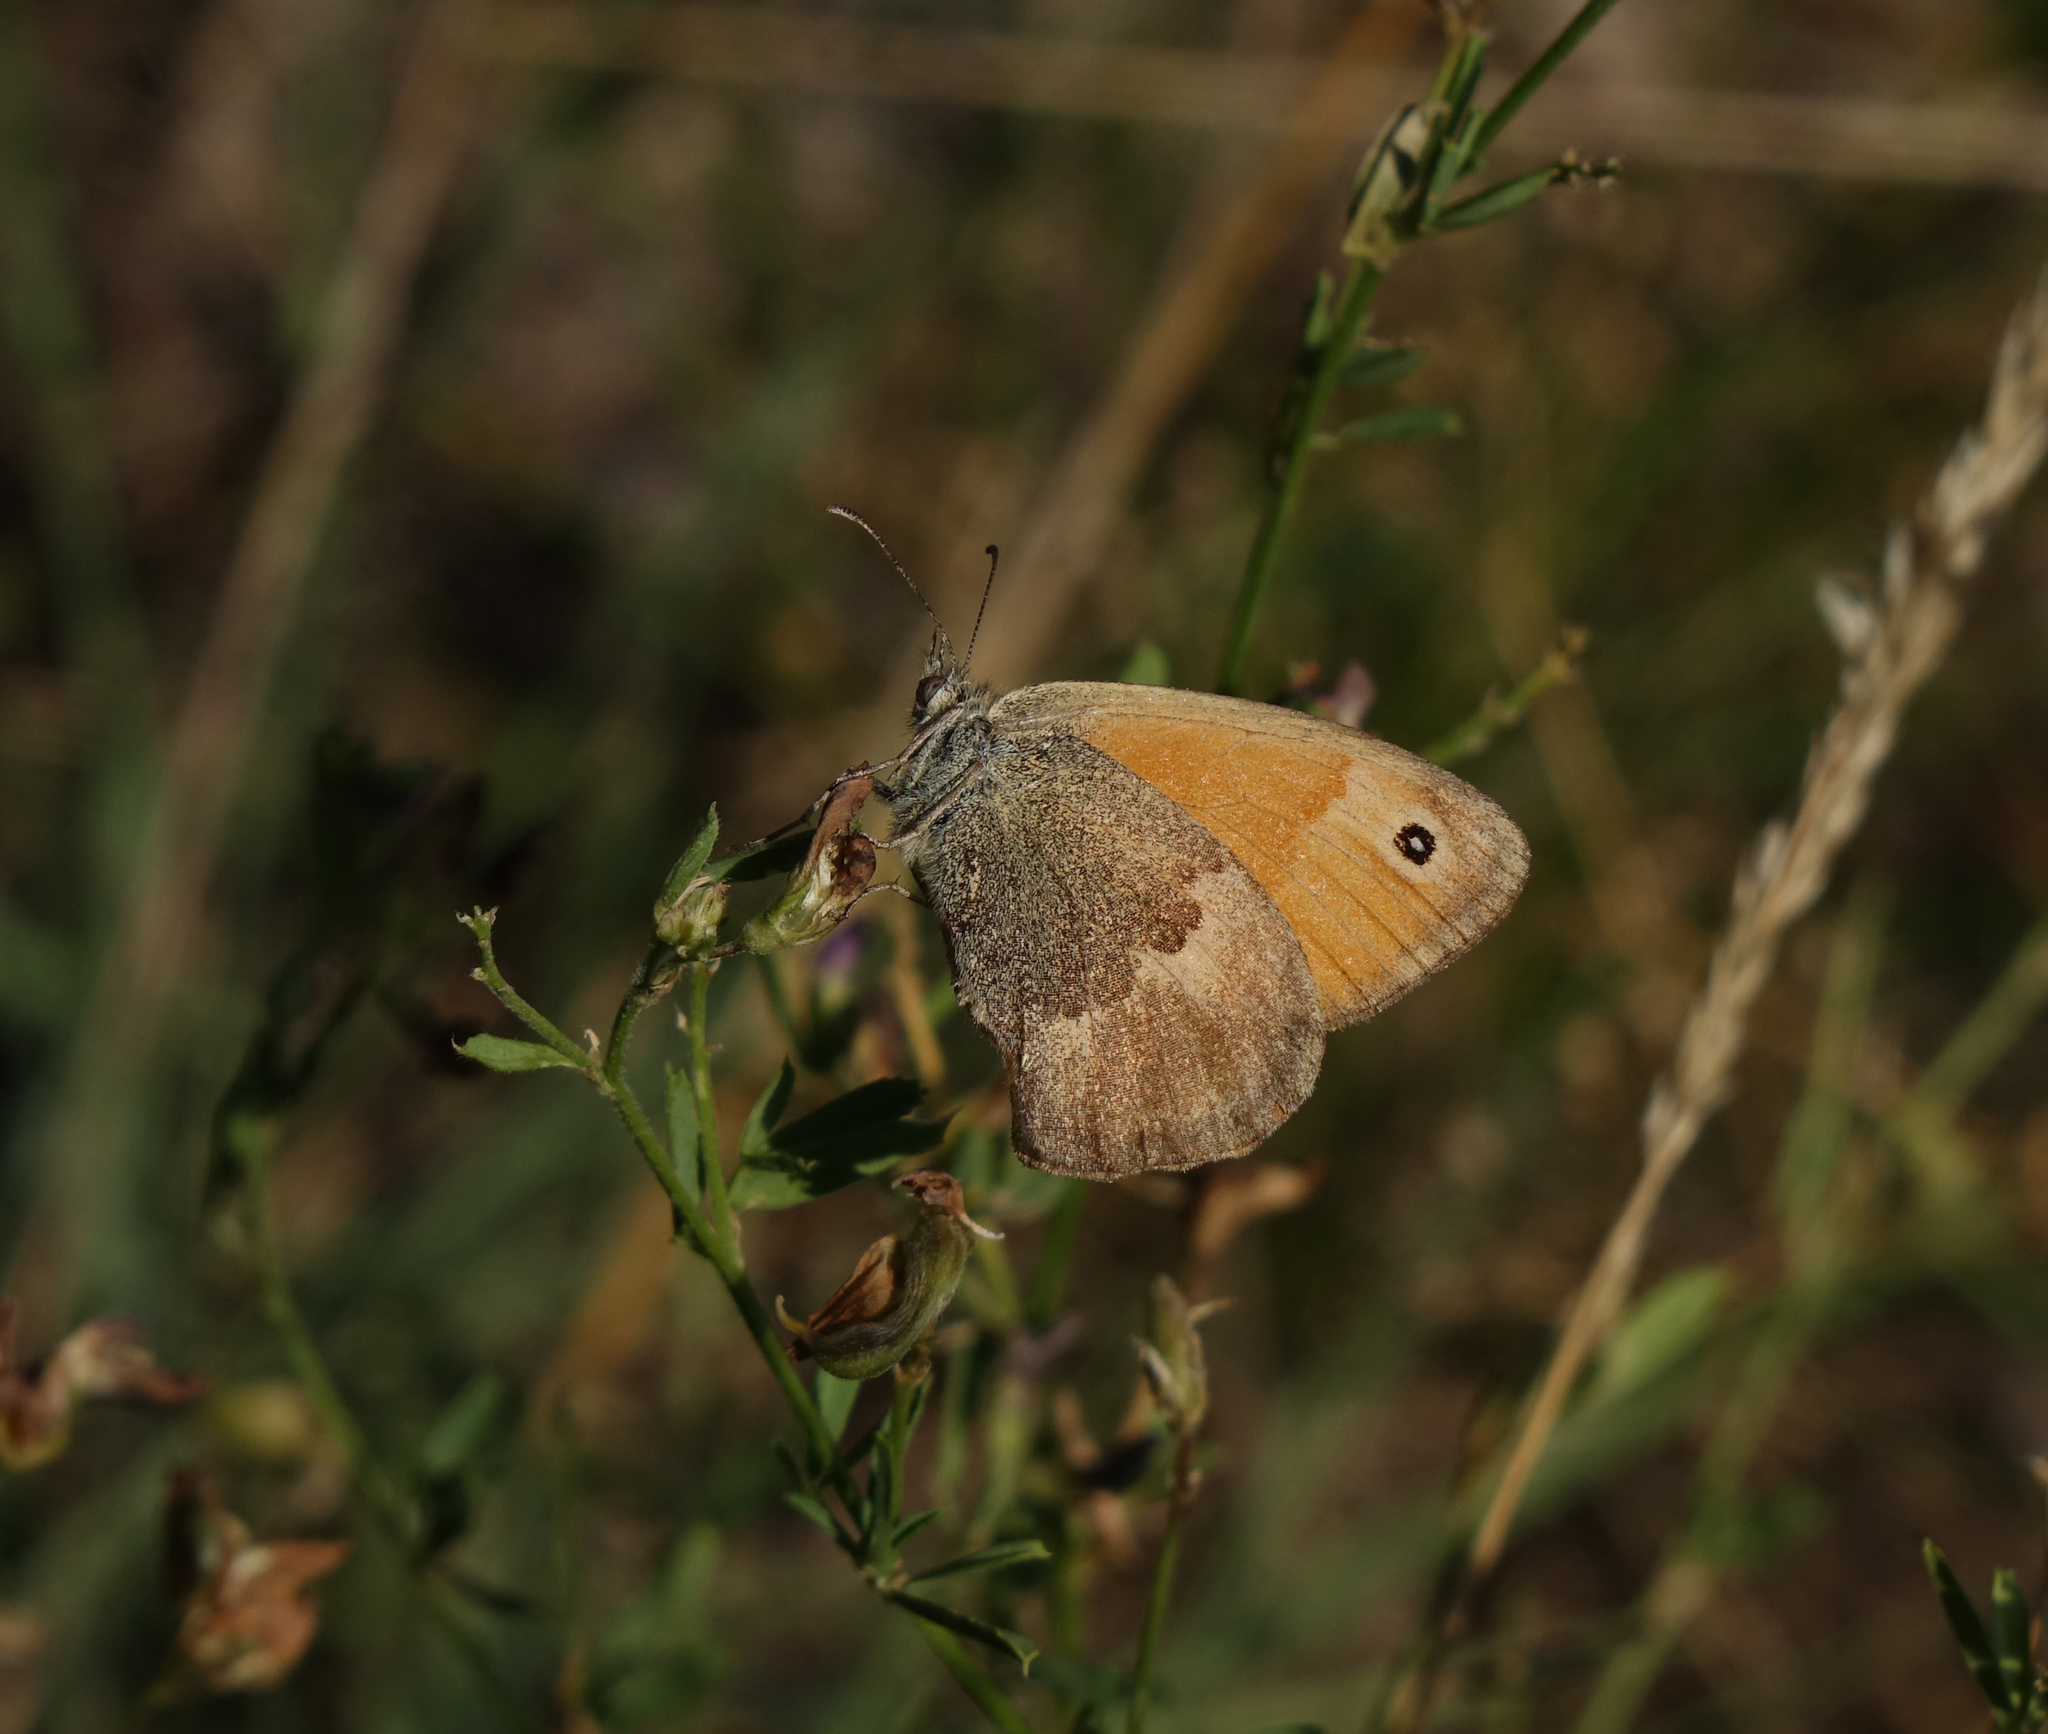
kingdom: Animalia
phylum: Arthropoda
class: Insecta
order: Lepidoptera
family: Nymphalidae
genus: Coenonympha
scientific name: Coenonympha pamphilus
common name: Small heath
